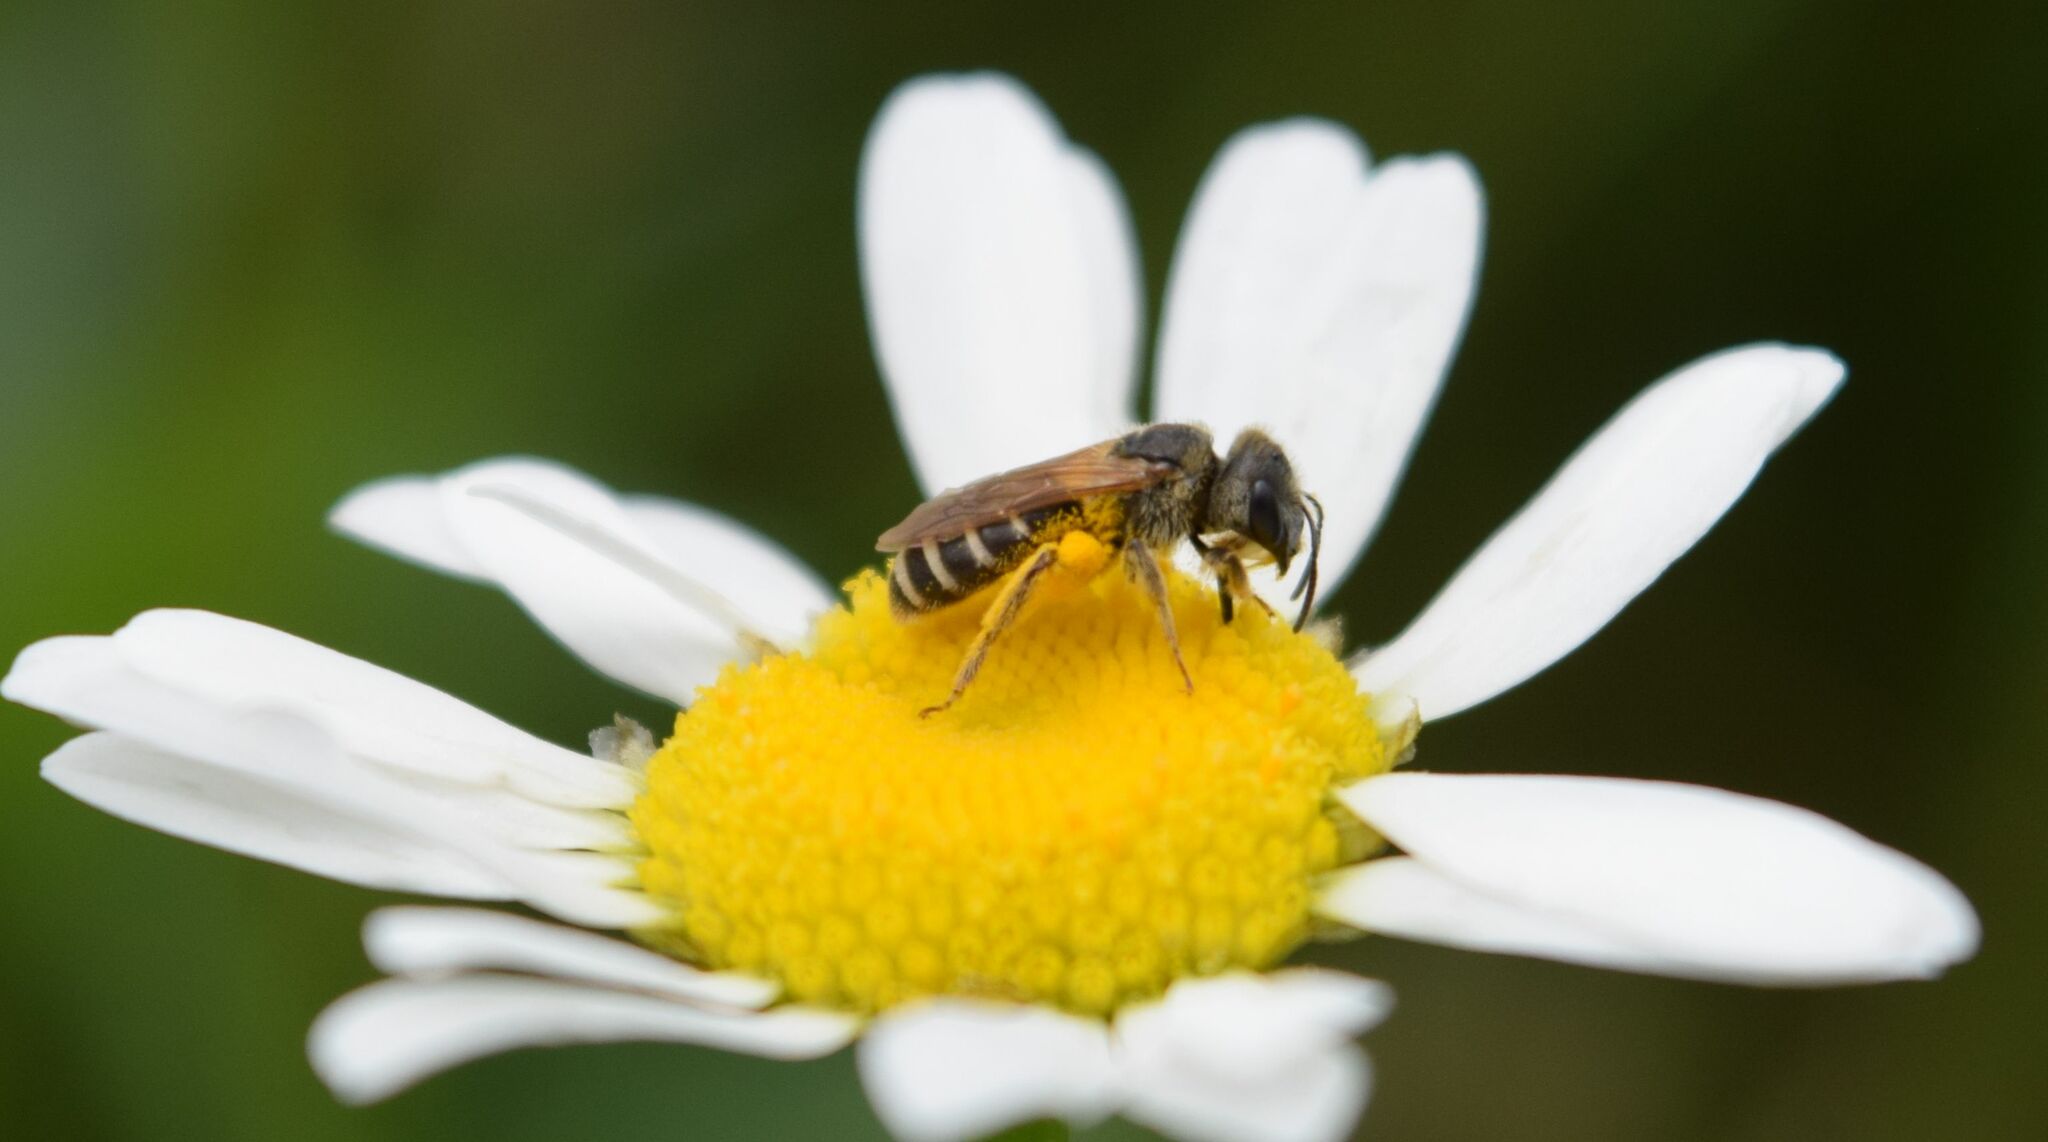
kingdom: Animalia
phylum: Arthropoda
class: Insecta
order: Hymenoptera
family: Halictidae
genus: Halictus
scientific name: Halictus ligatus
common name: Ligated furrow bee
